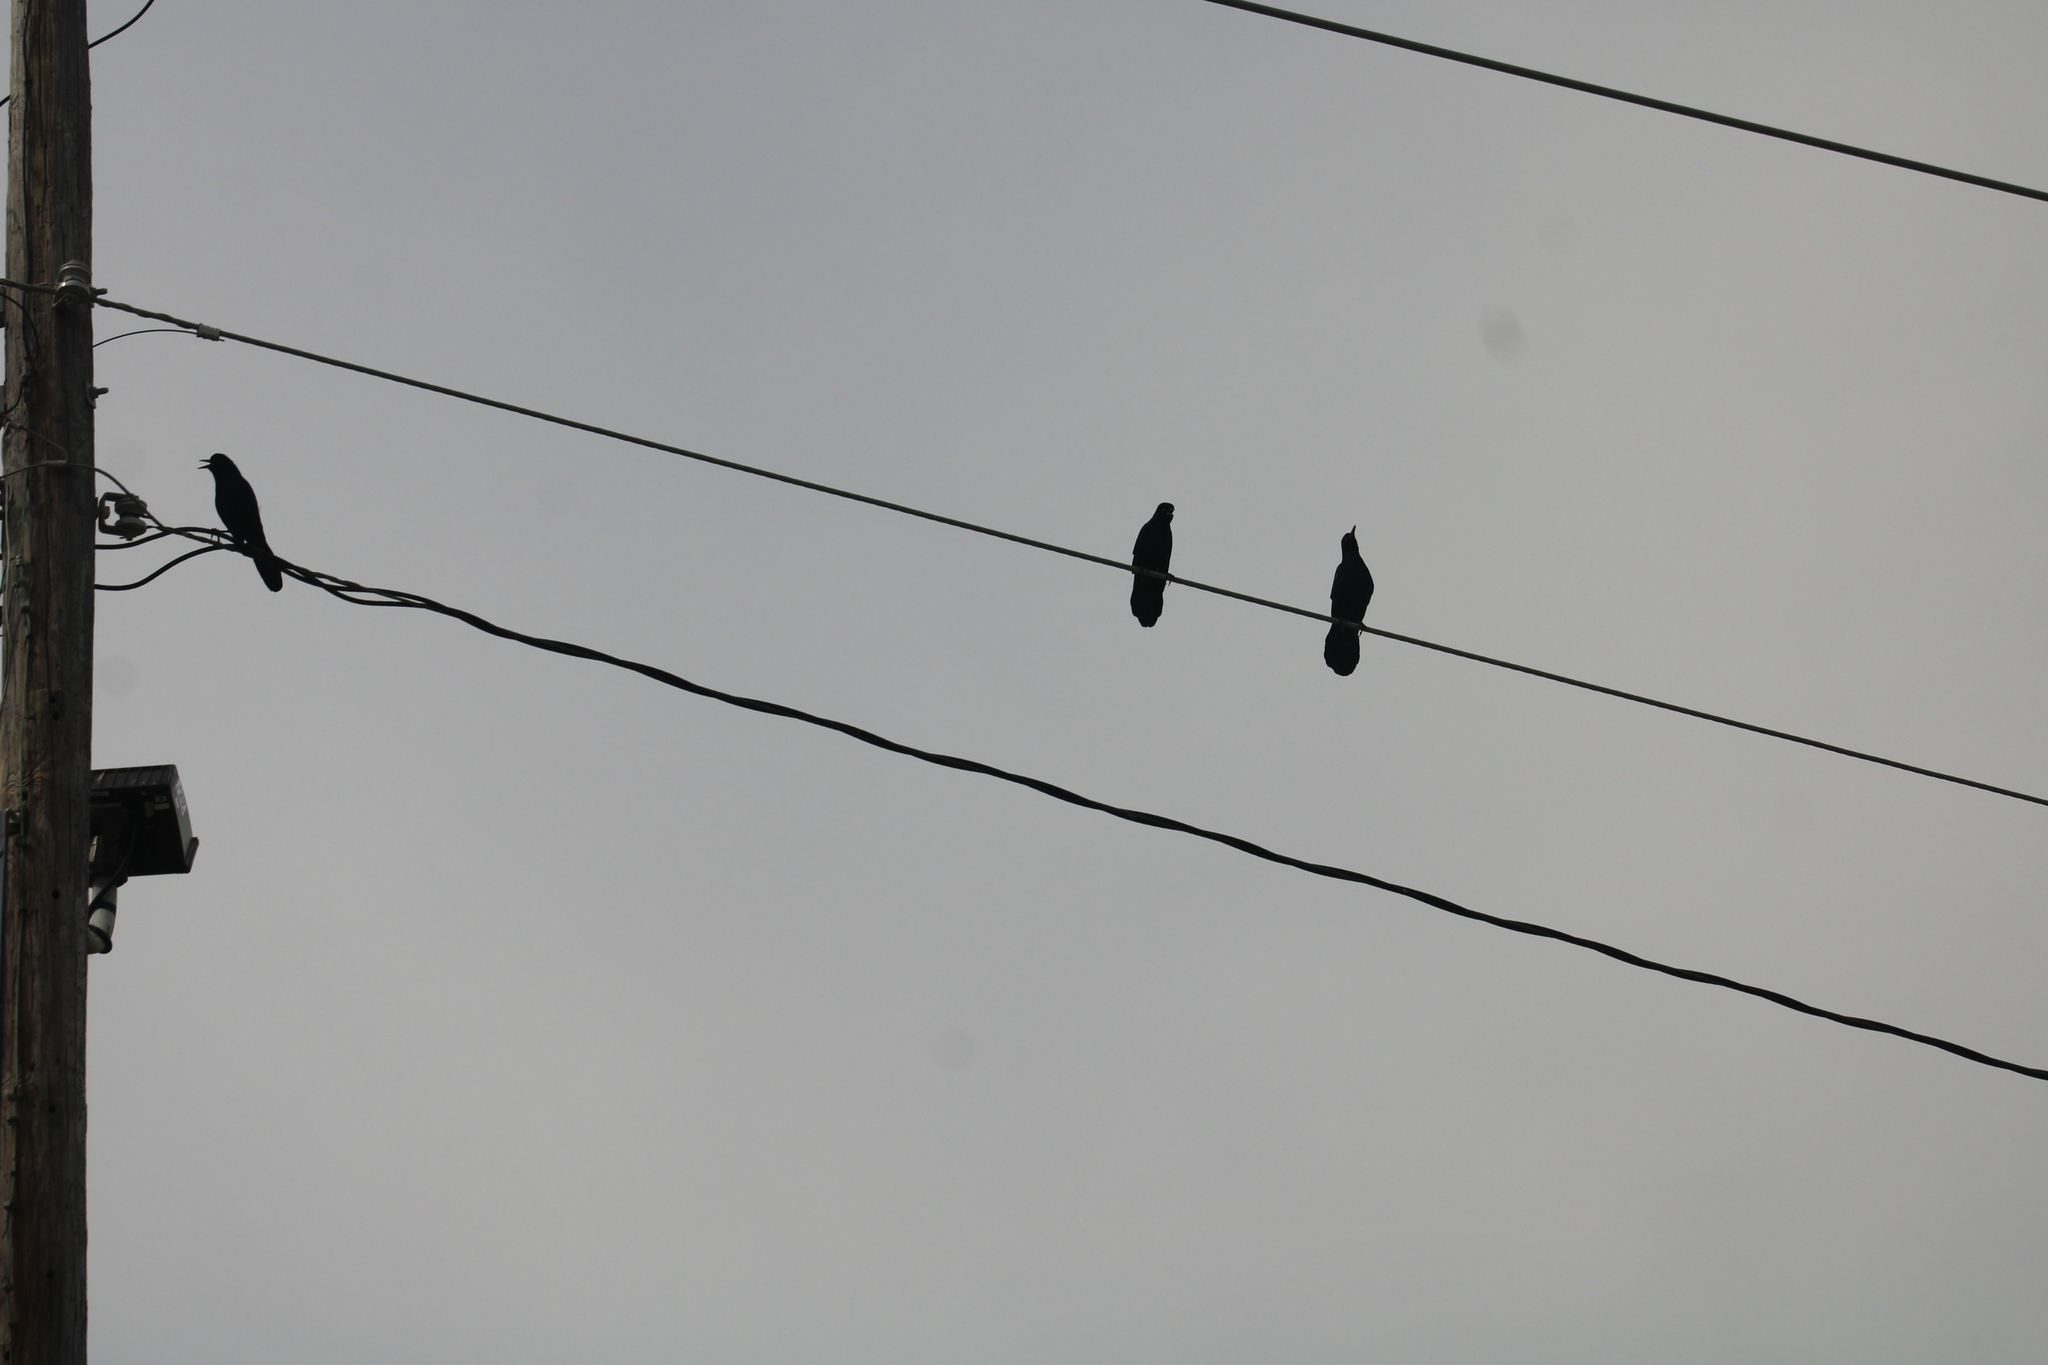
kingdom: Animalia
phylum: Chordata
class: Aves
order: Passeriformes
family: Icteridae
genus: Quiscalus
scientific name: Quiscalus major
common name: Boat-tailed grackle
